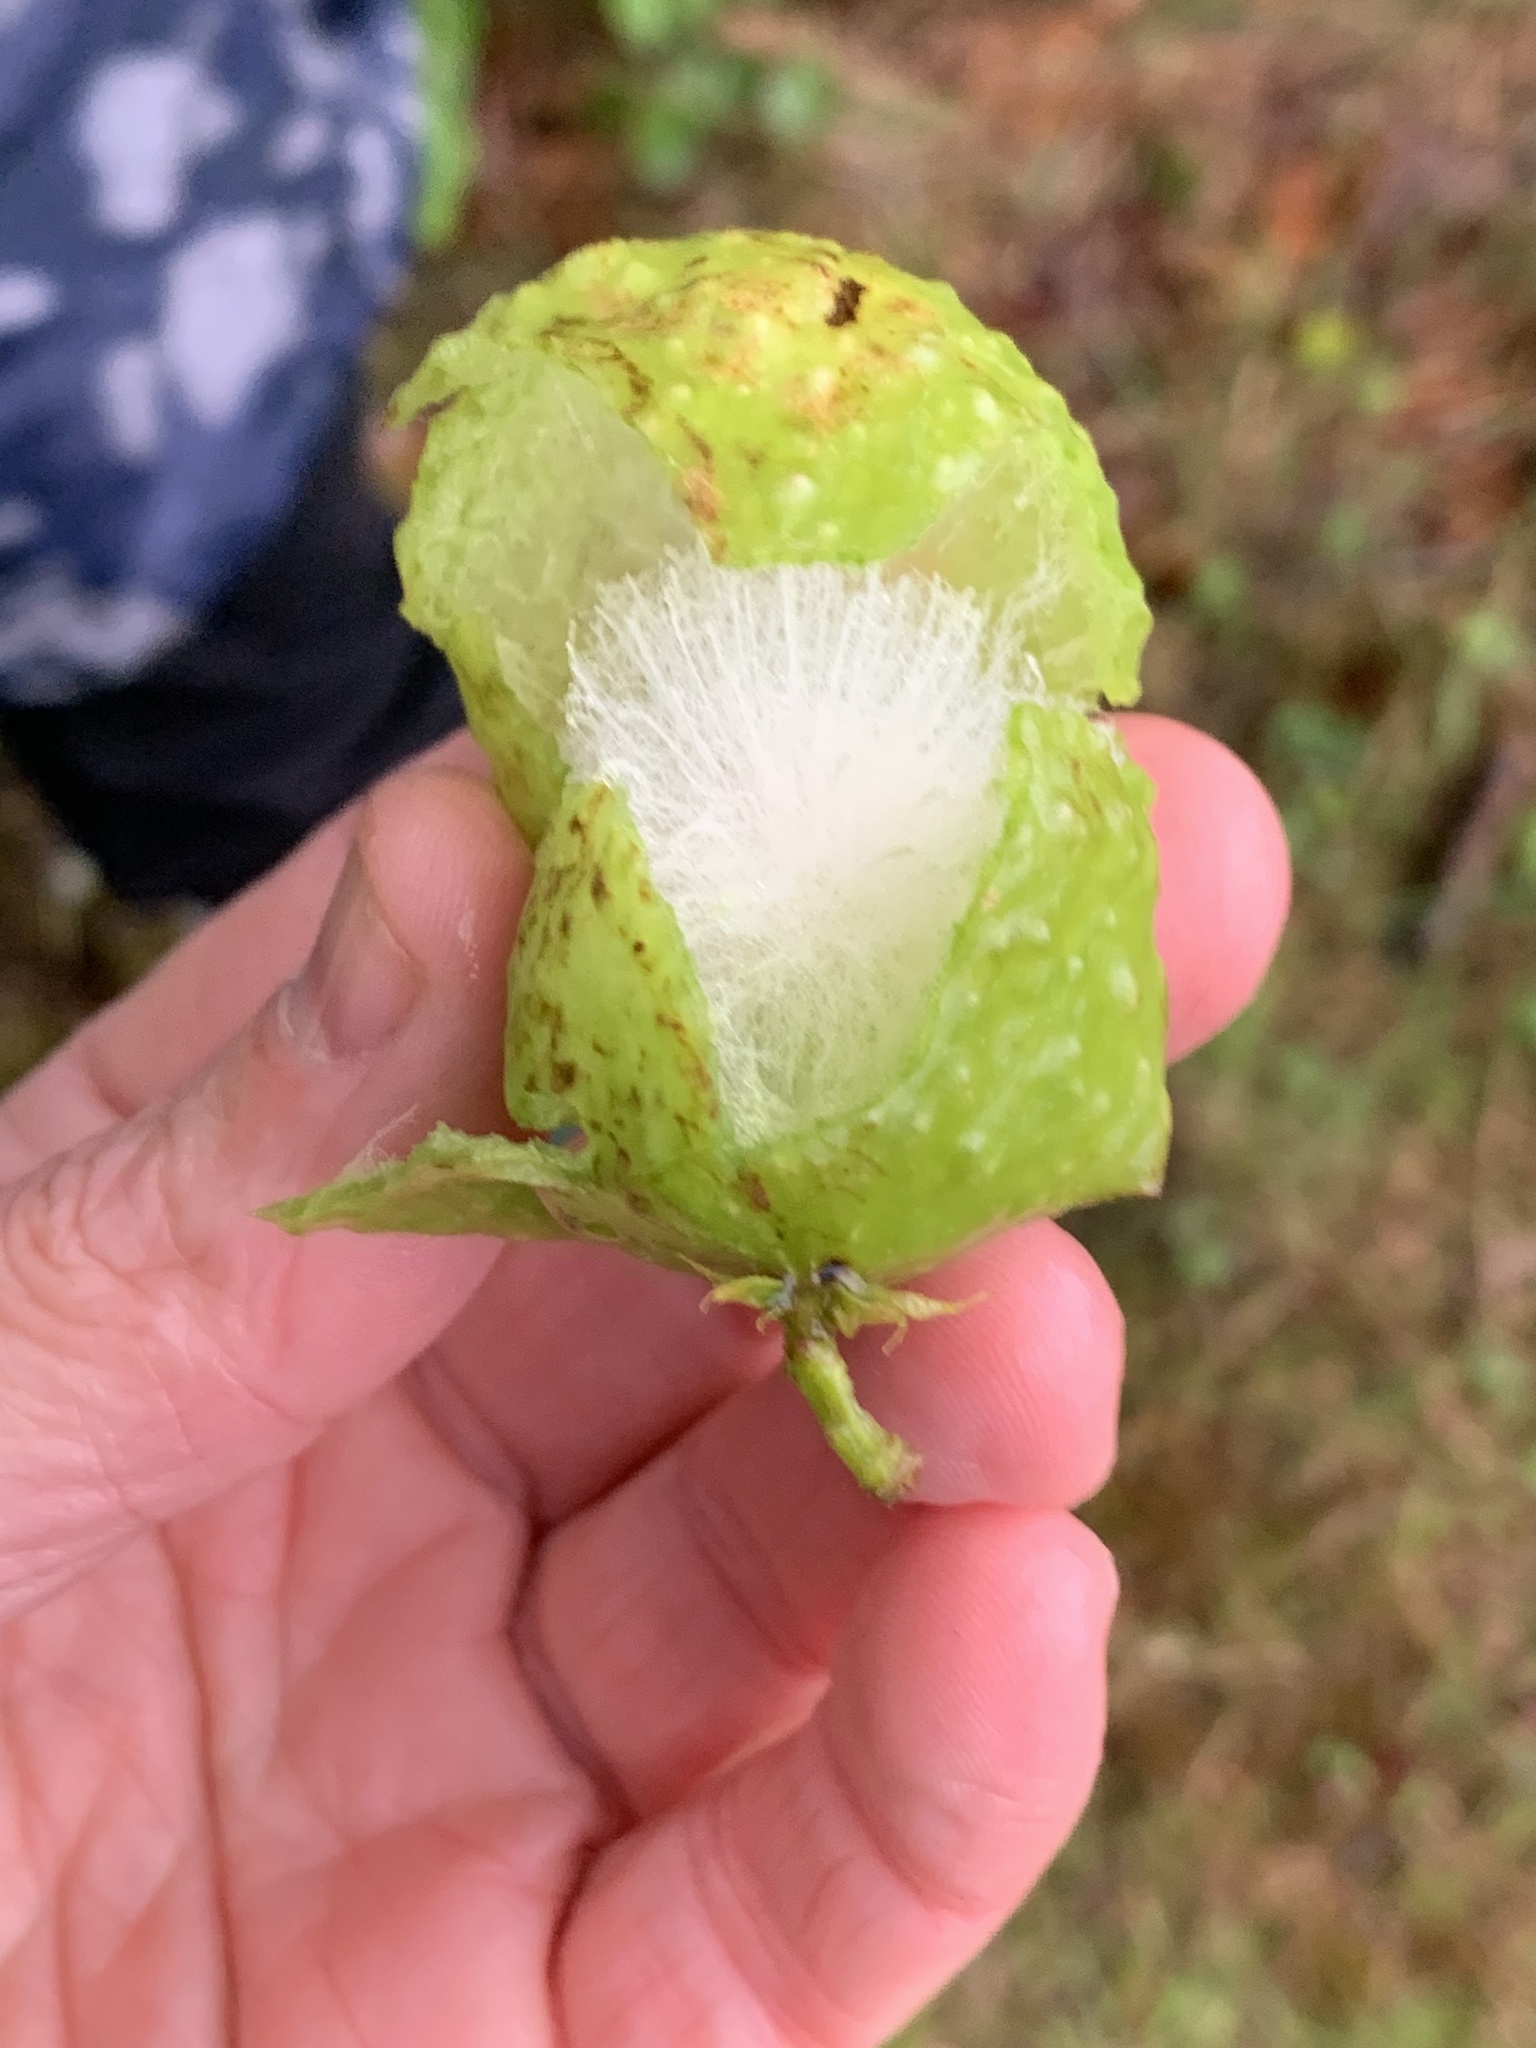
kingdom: Animalia
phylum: Arthropoda
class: Insecta
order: Hymenoptera
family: Cynipidae
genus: Amphibolips
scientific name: Amphibolips
